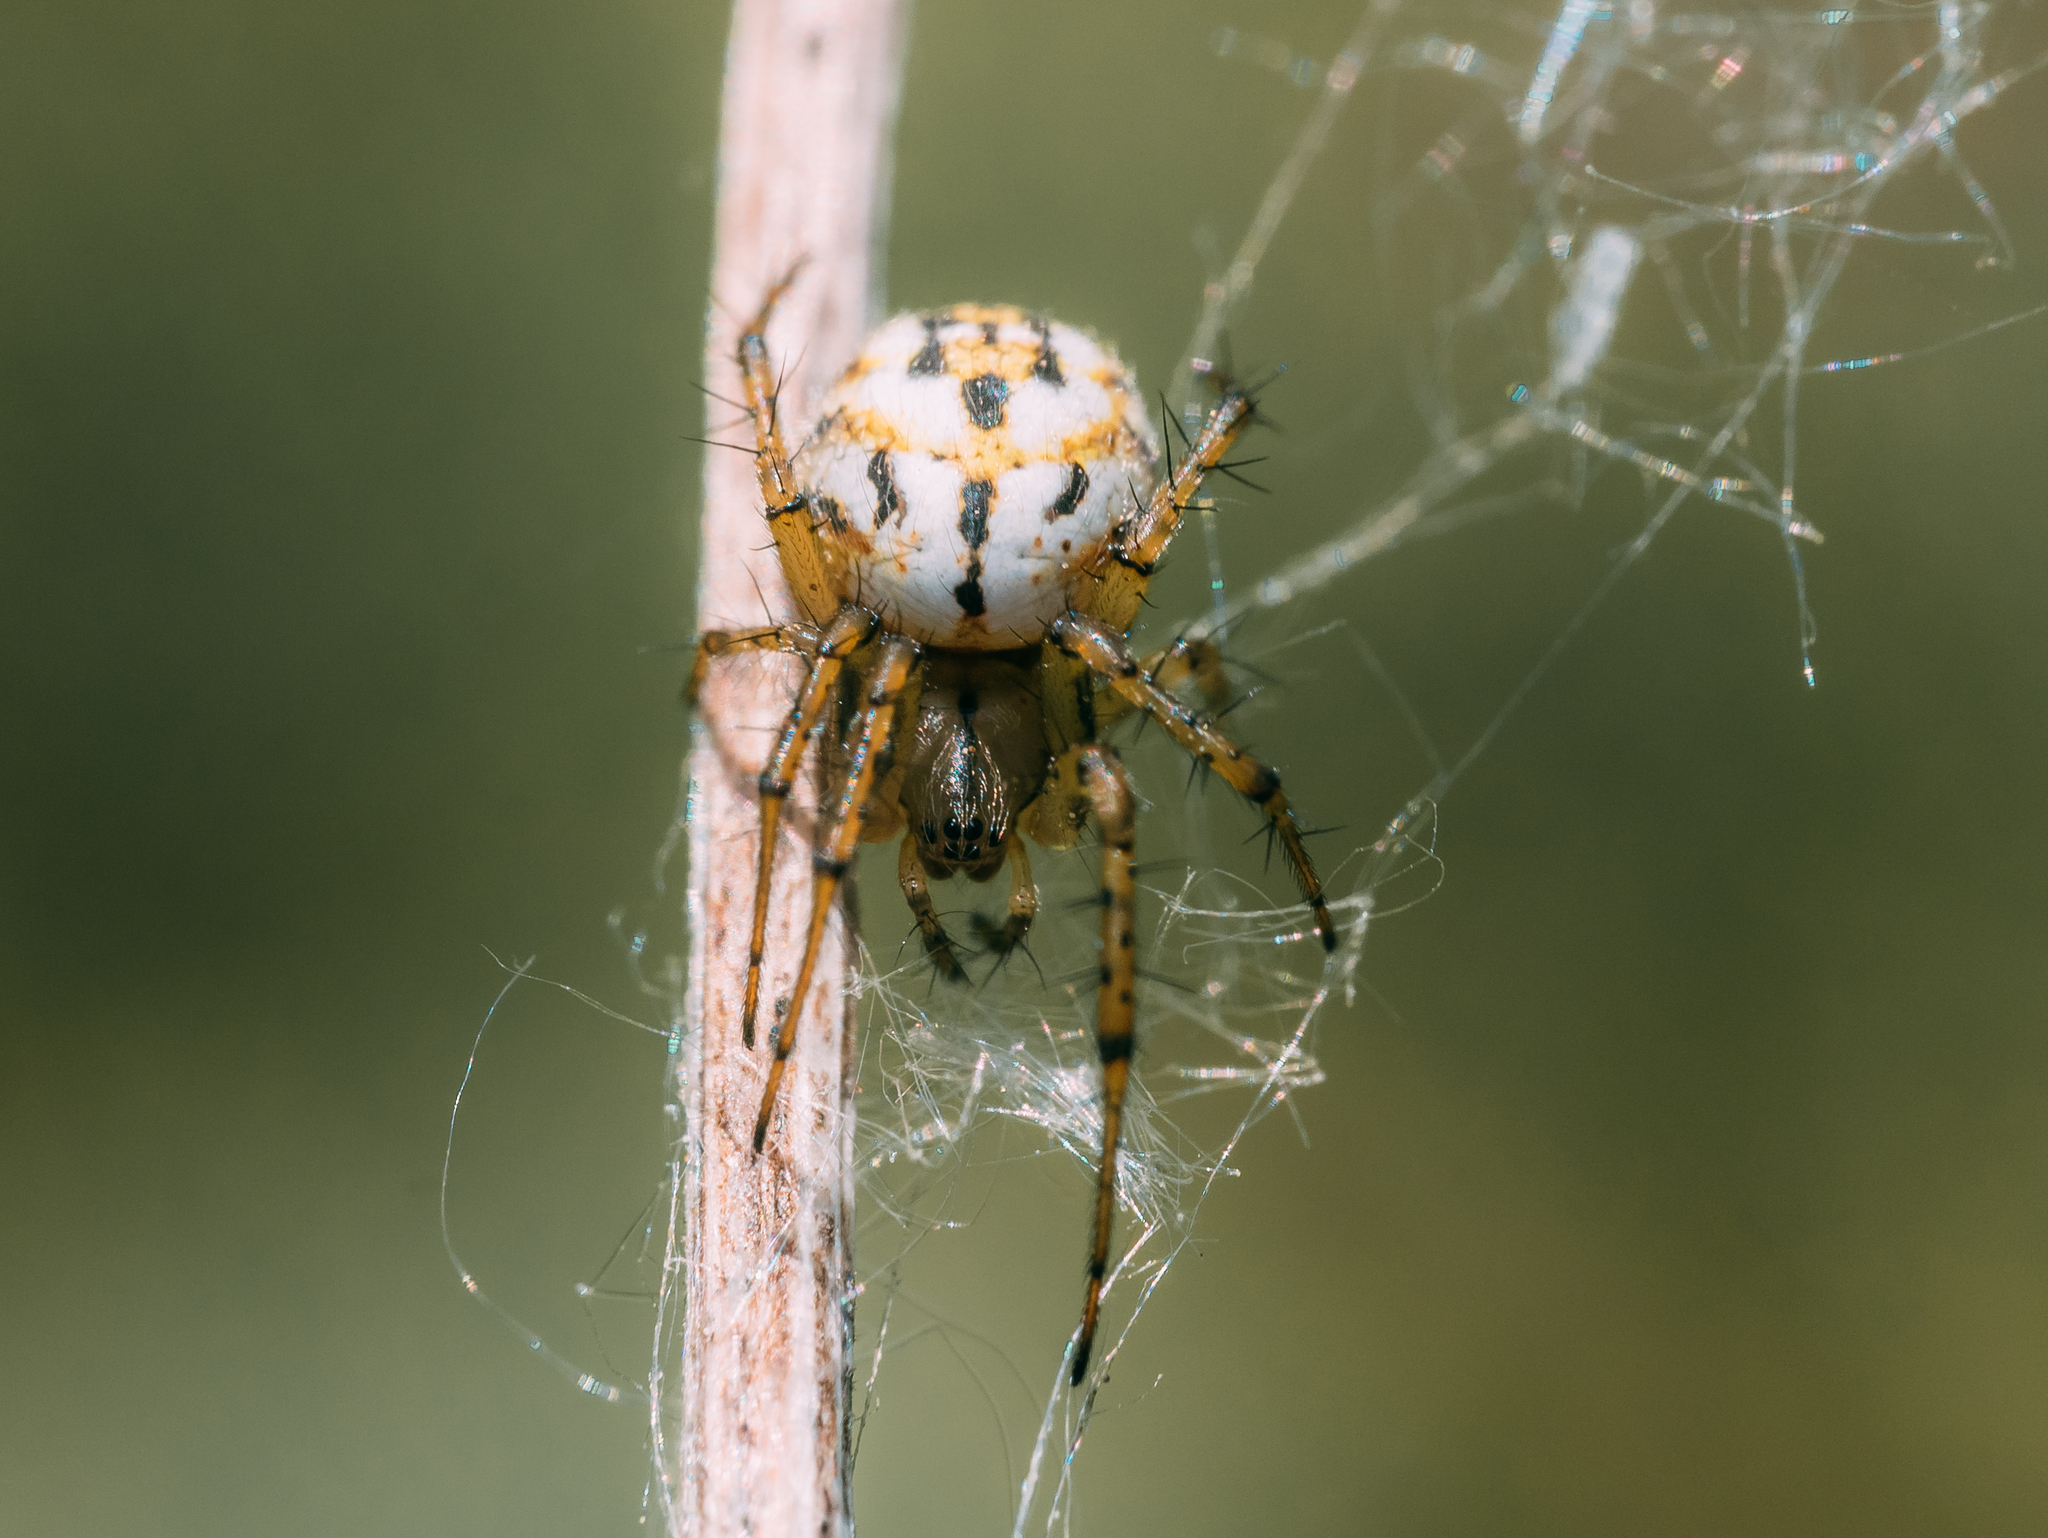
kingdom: Animalia
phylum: Arthropoda
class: Arachnida
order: Araneae
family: Araneidae
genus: Mangora
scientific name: Mangora acalypha
